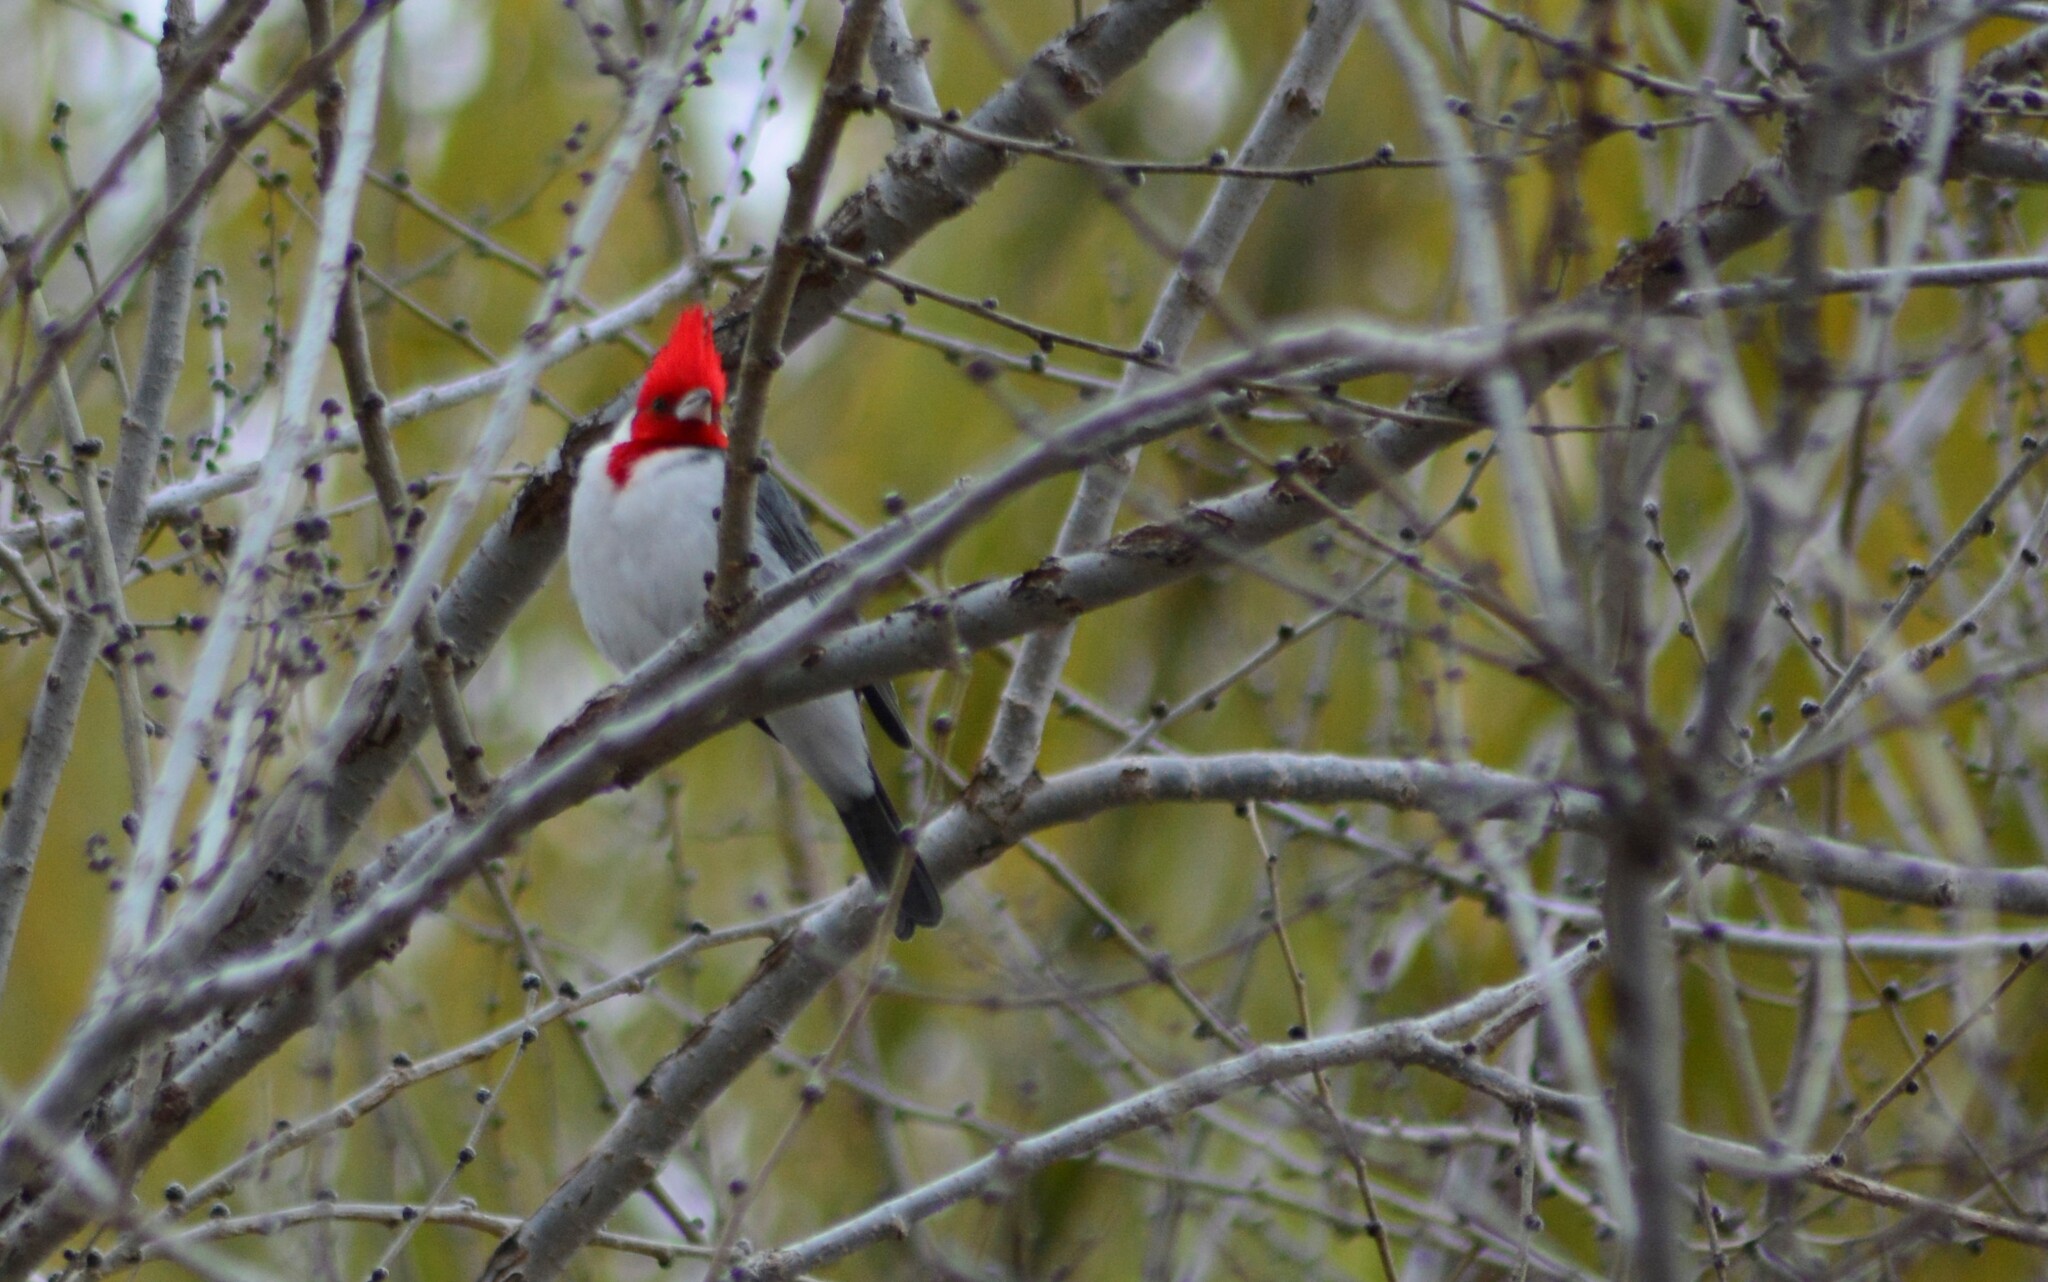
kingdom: Animalia
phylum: Chordata
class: Aves
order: Passeriformes
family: Thraupidae
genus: Paroaria
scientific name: Paroaria coronata
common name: Red-crested cardinal
